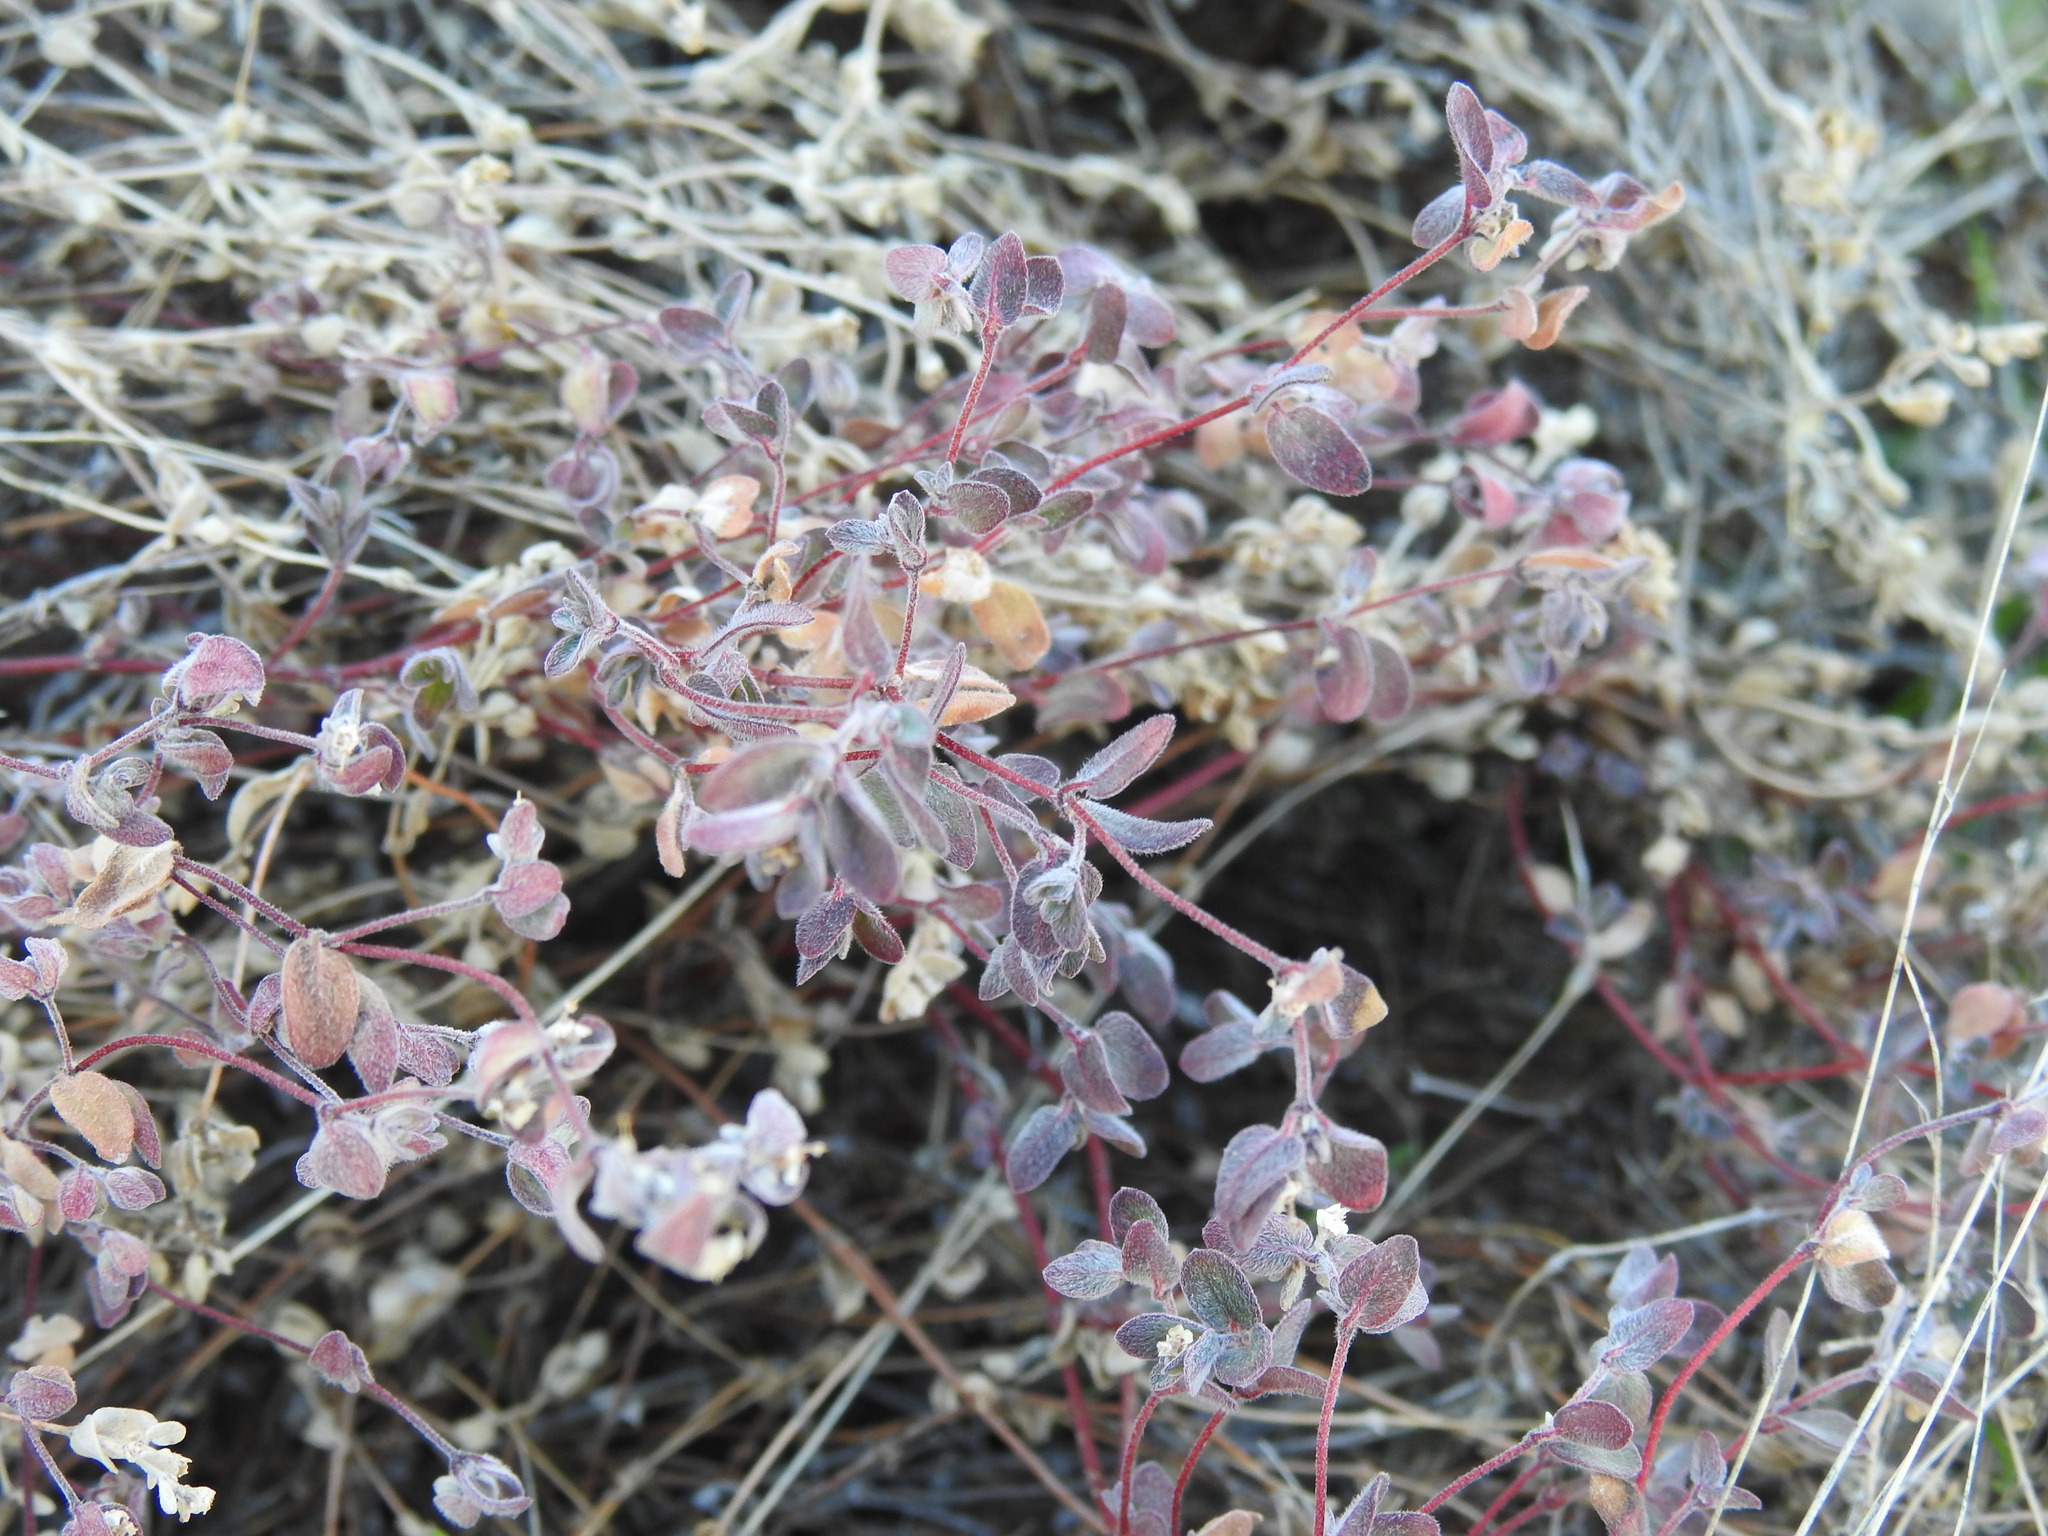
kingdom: Plantae
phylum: Tracheophyta
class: Magnoliopsida
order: Malpighiales
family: Euphorbiaceae
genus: Euphorbia
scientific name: Euphorbia melanadenia
